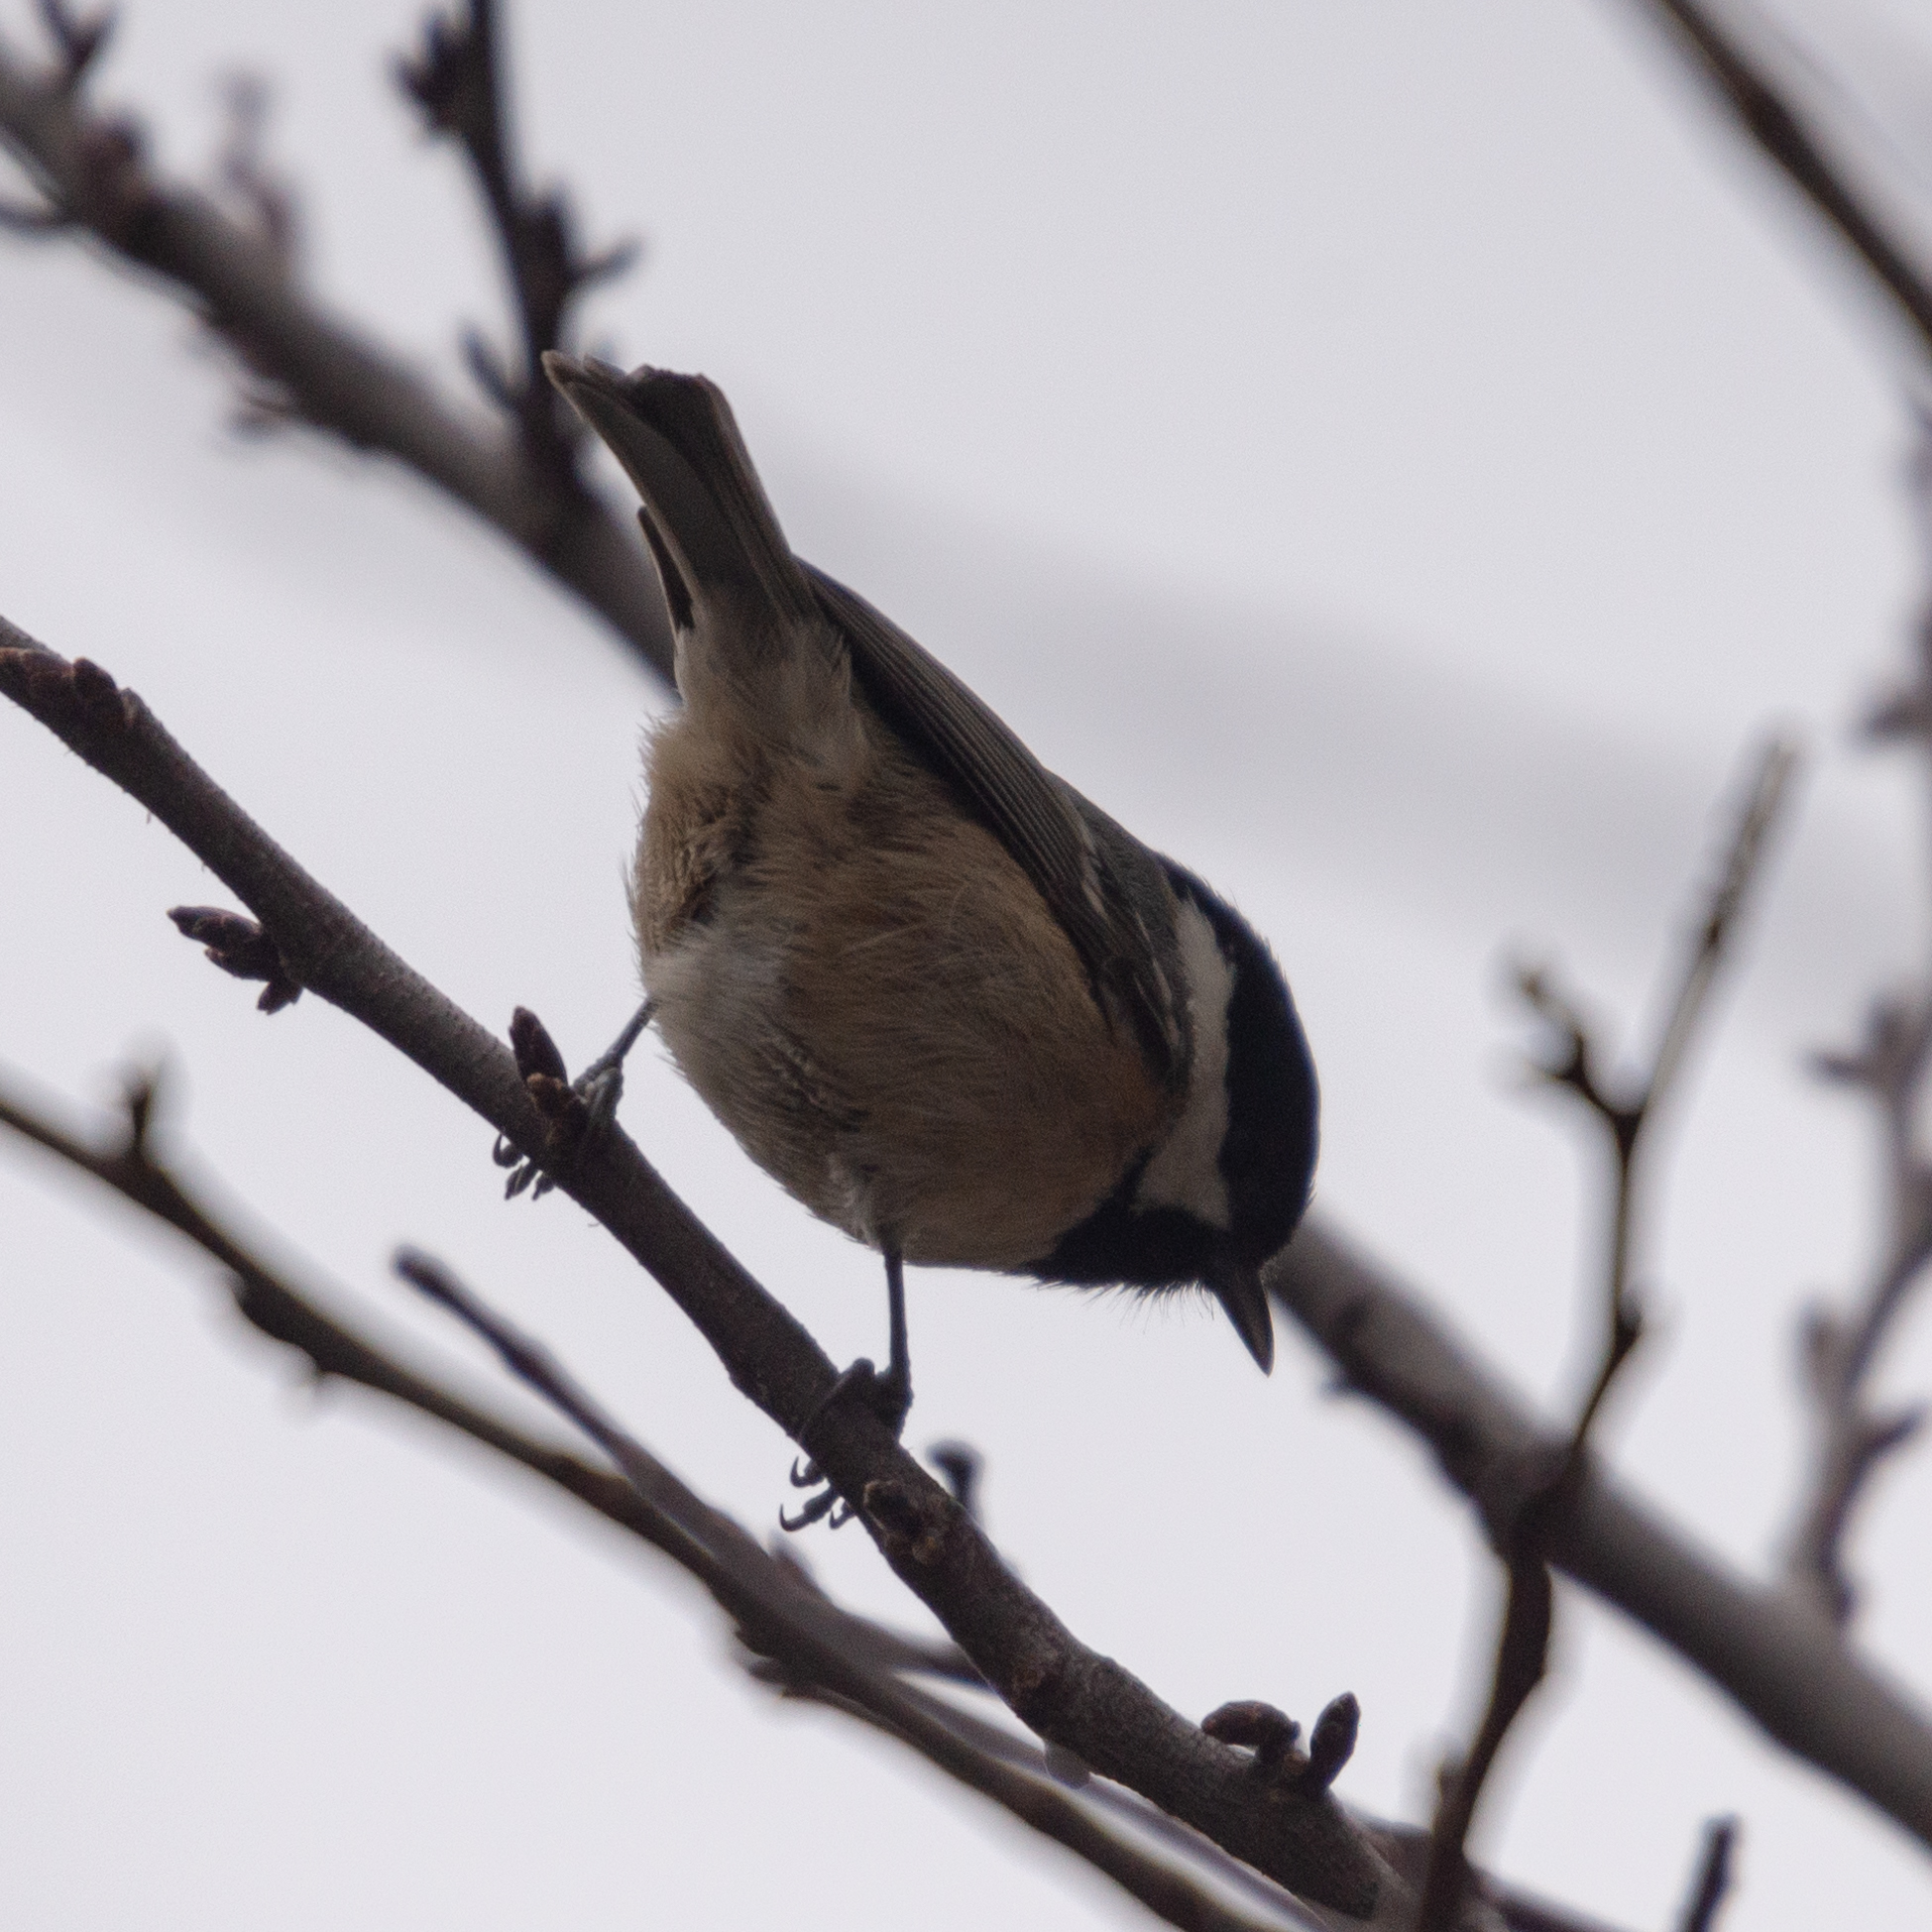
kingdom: Animalia
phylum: Chordata
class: Aves
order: Passeriformes
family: Paridae
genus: Periparus
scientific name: Periparus ater
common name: Coal tit
